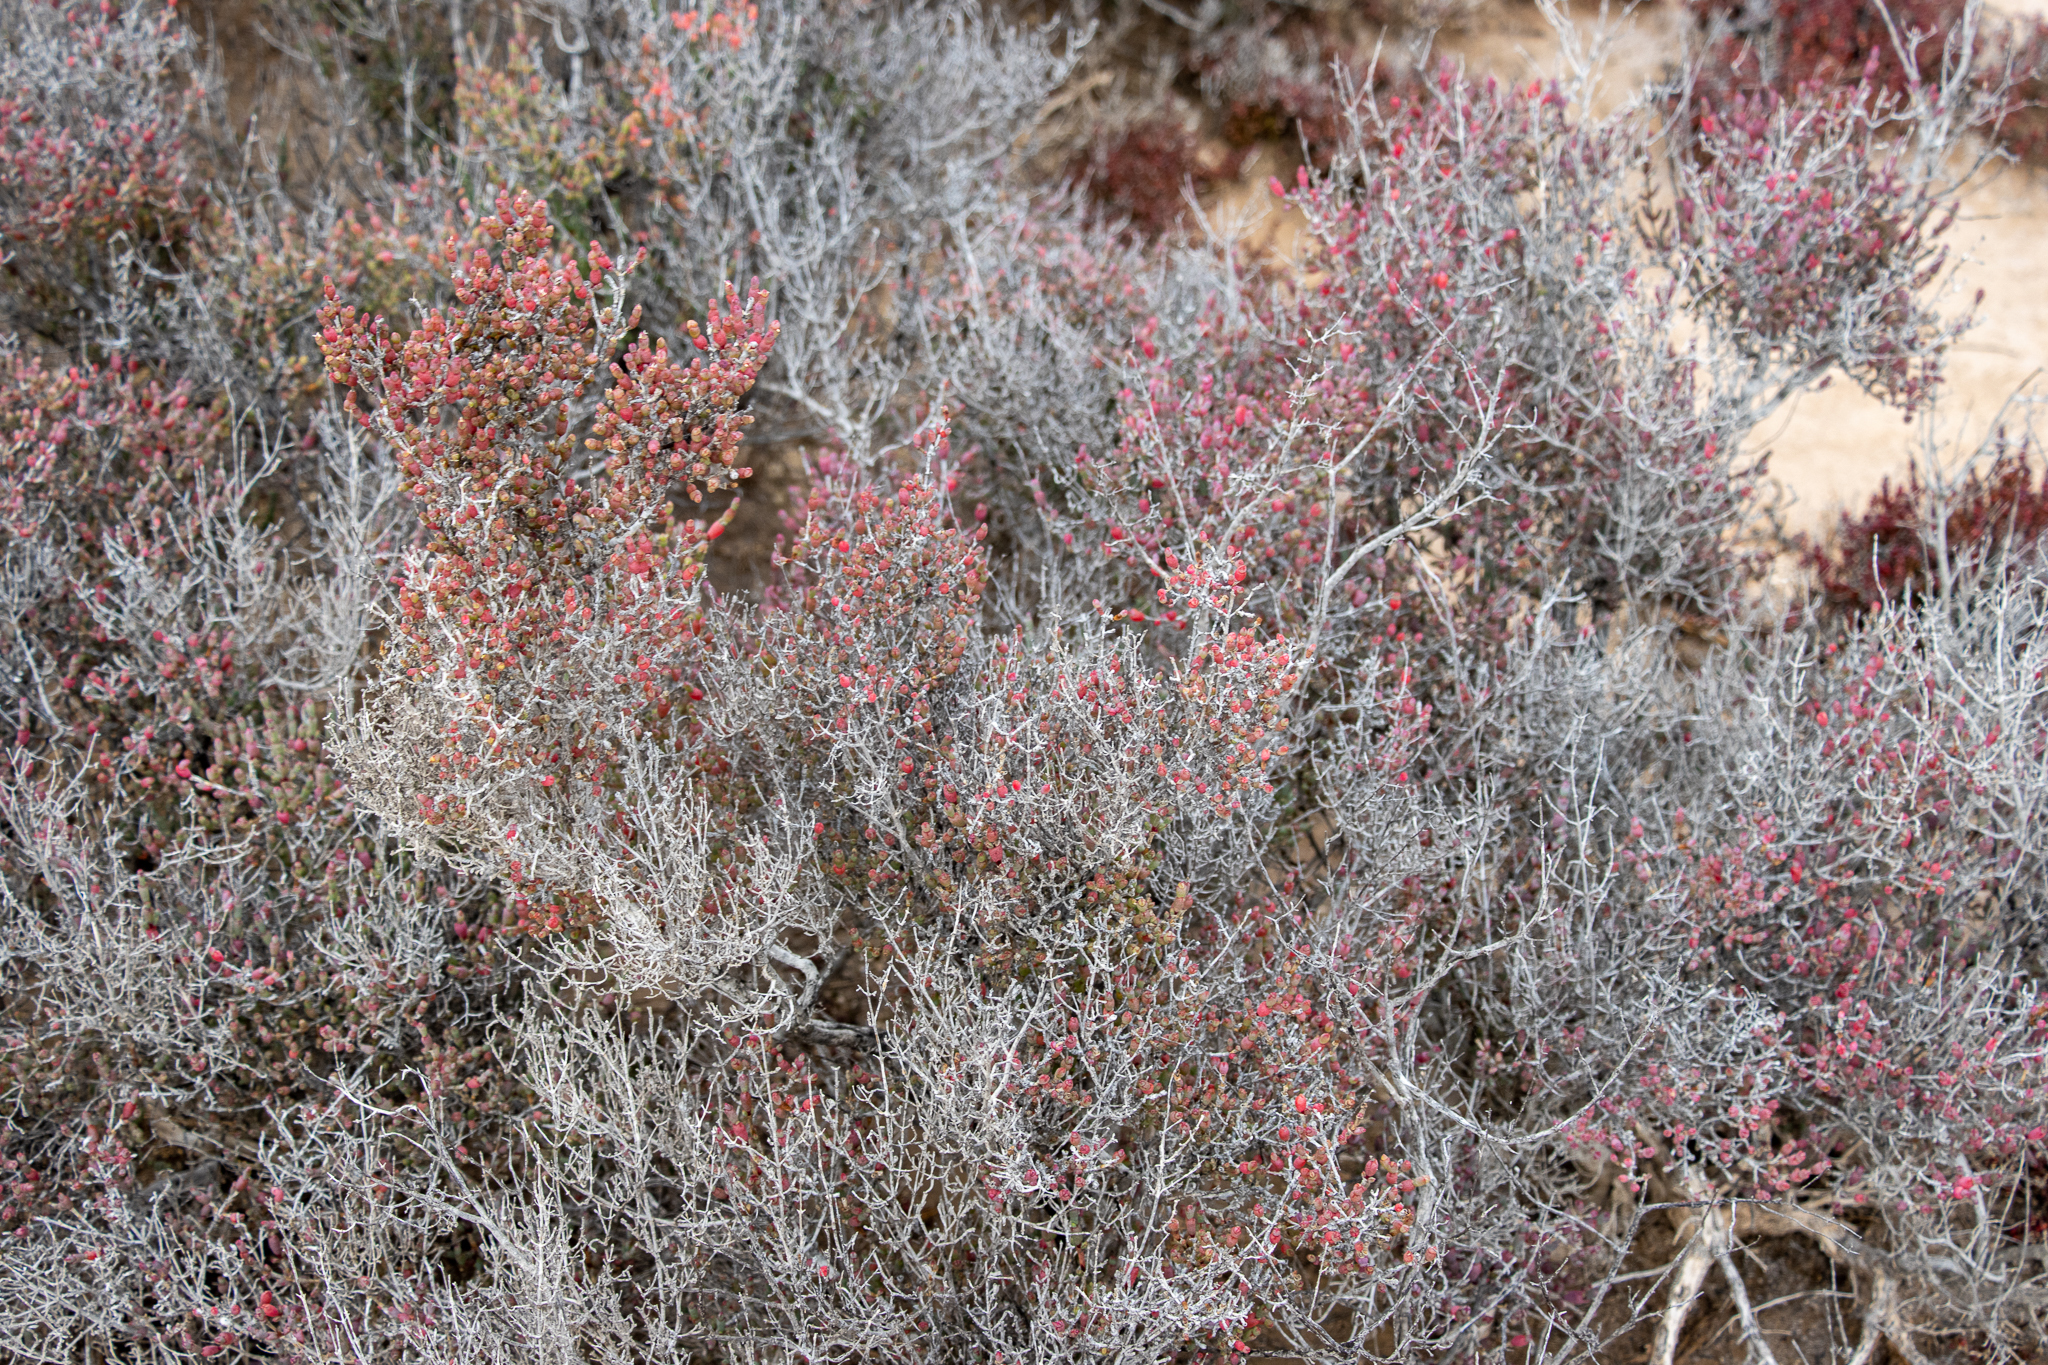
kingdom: Plantae
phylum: Tracheophyta
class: Magnoliopsida
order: Caryophyllales
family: Amaranthaceae
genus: Tecticornia
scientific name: Tecticornia moniliformis
